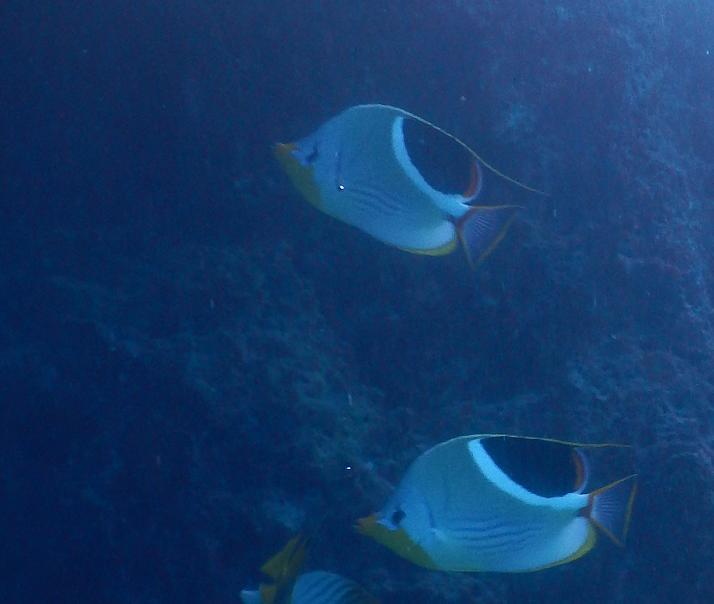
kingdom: Animalia
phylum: Chordata
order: Perciformes
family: Chaetodontidae
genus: Chaetodon
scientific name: Chaetodon ephippium
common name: Saddled butterflyfish
